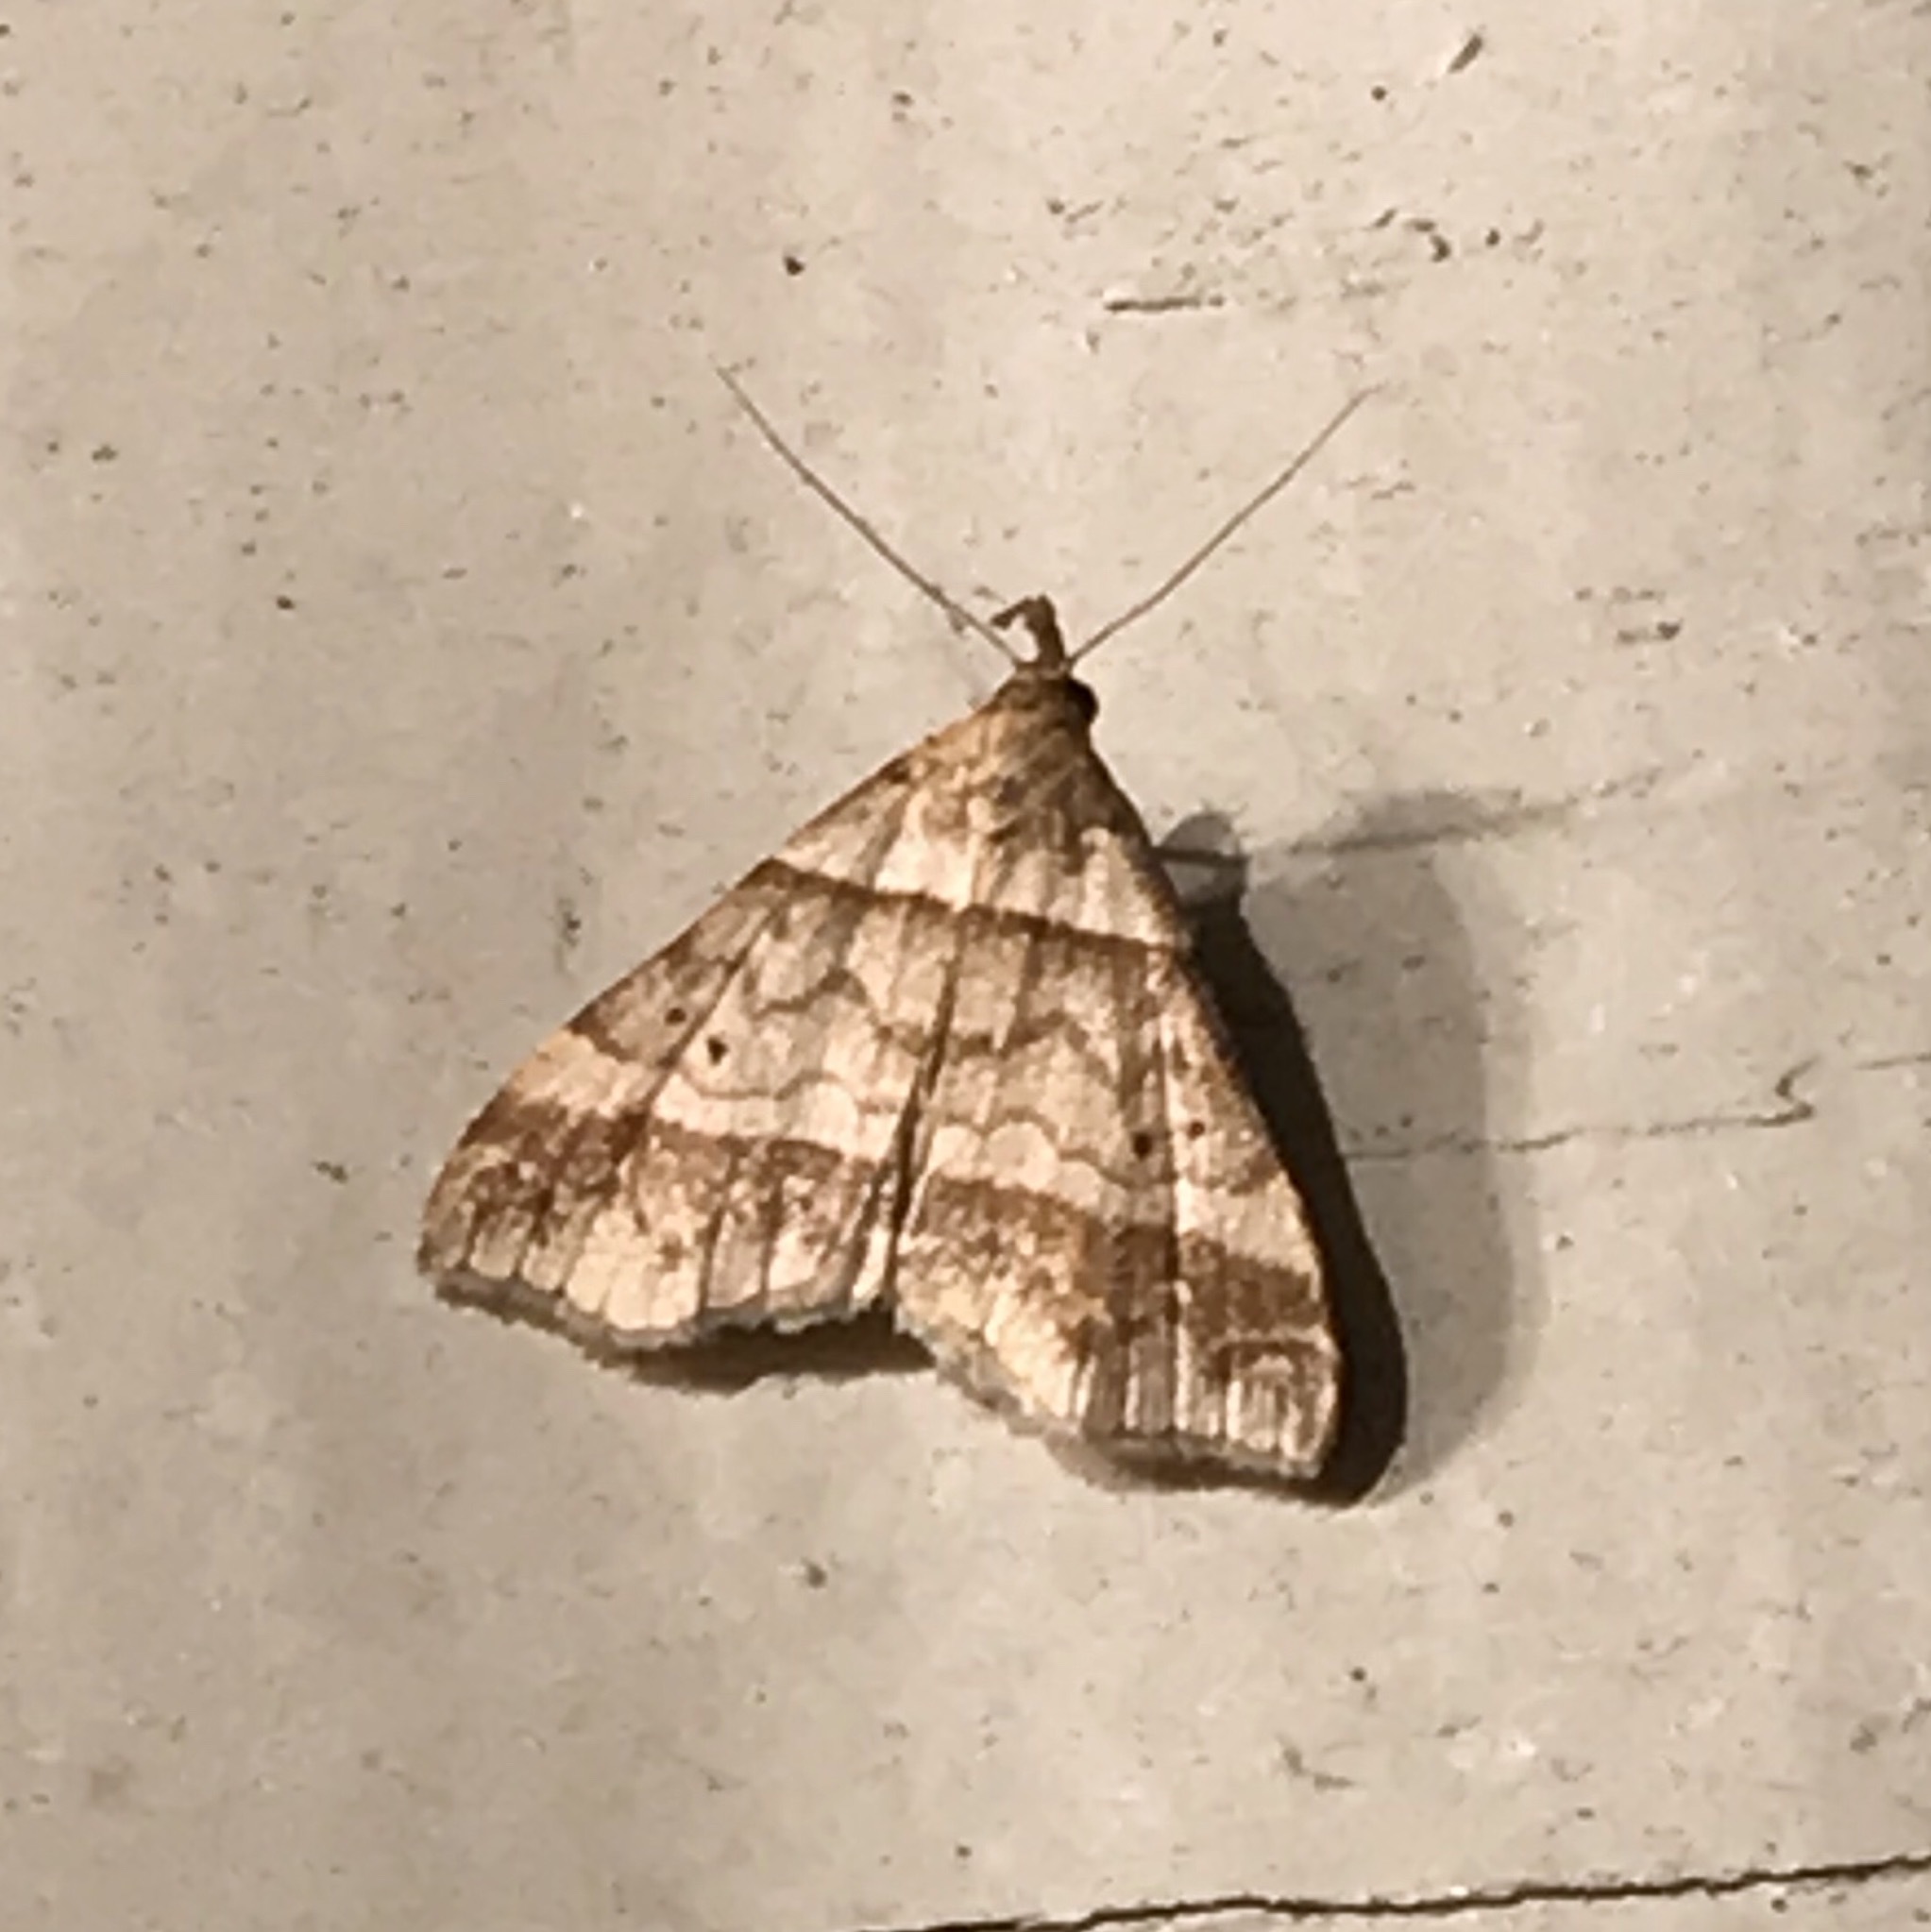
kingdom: Animalia
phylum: Arthropoda
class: Insecta
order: Lepidoptera
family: Erebidae
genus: Phaeolita
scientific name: Phaeolita pyramusalis
